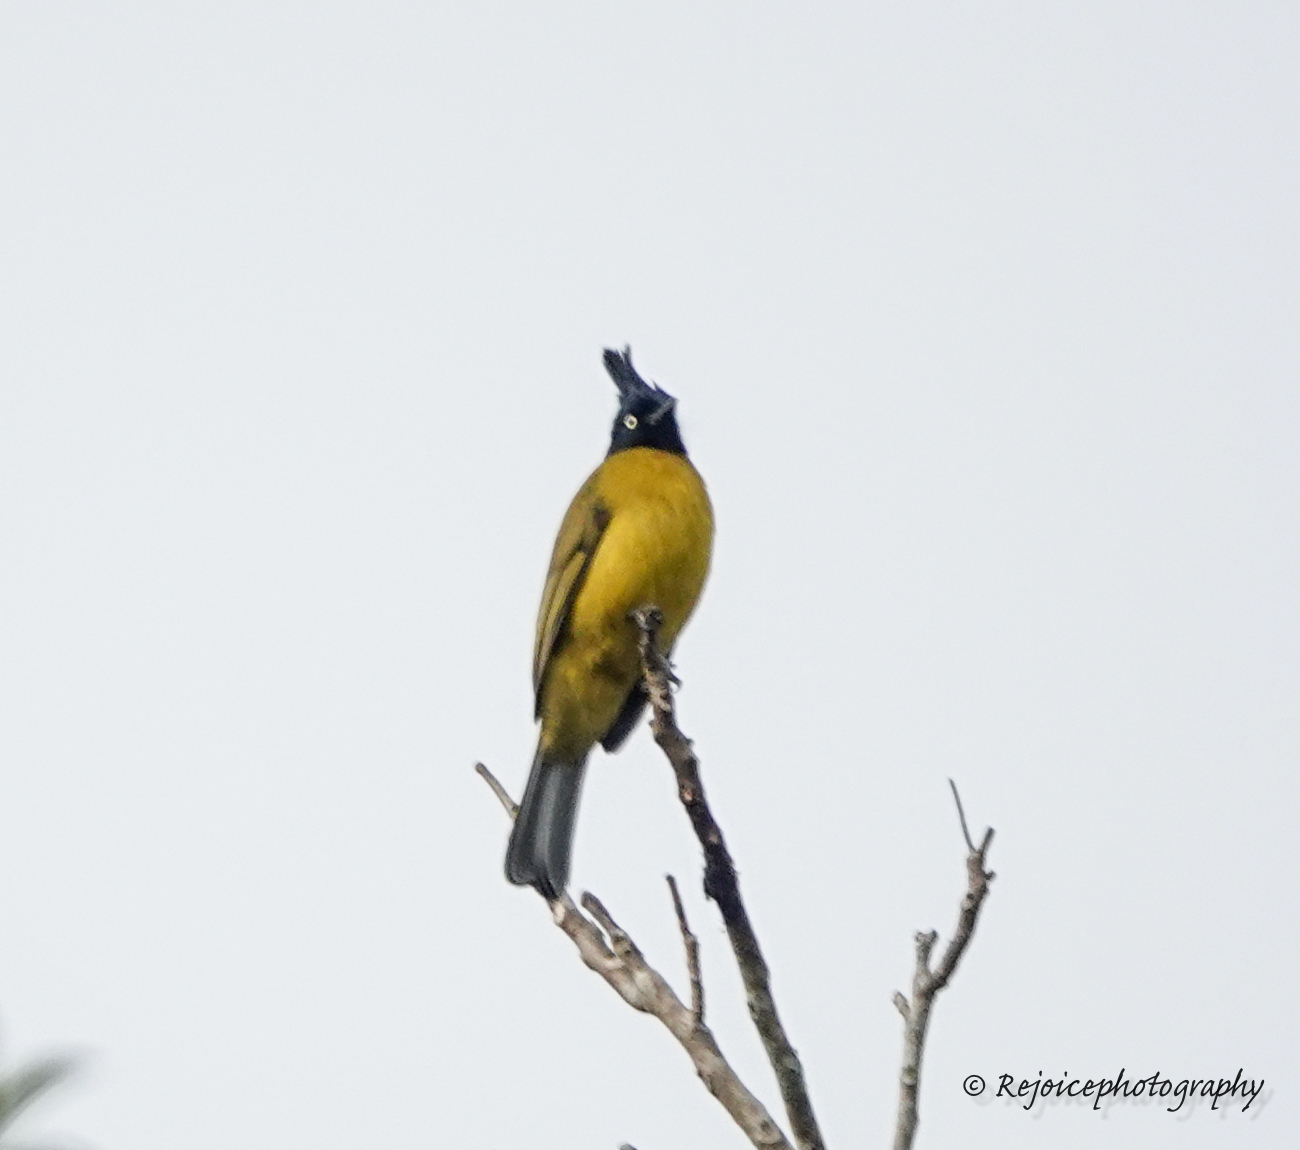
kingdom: Animalia
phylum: Chordata
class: Aves
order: Passeriformes
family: Pycnonotidae
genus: Pycnonotus
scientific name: Pycnonotus flaviventris
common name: Black-crested bulbul
